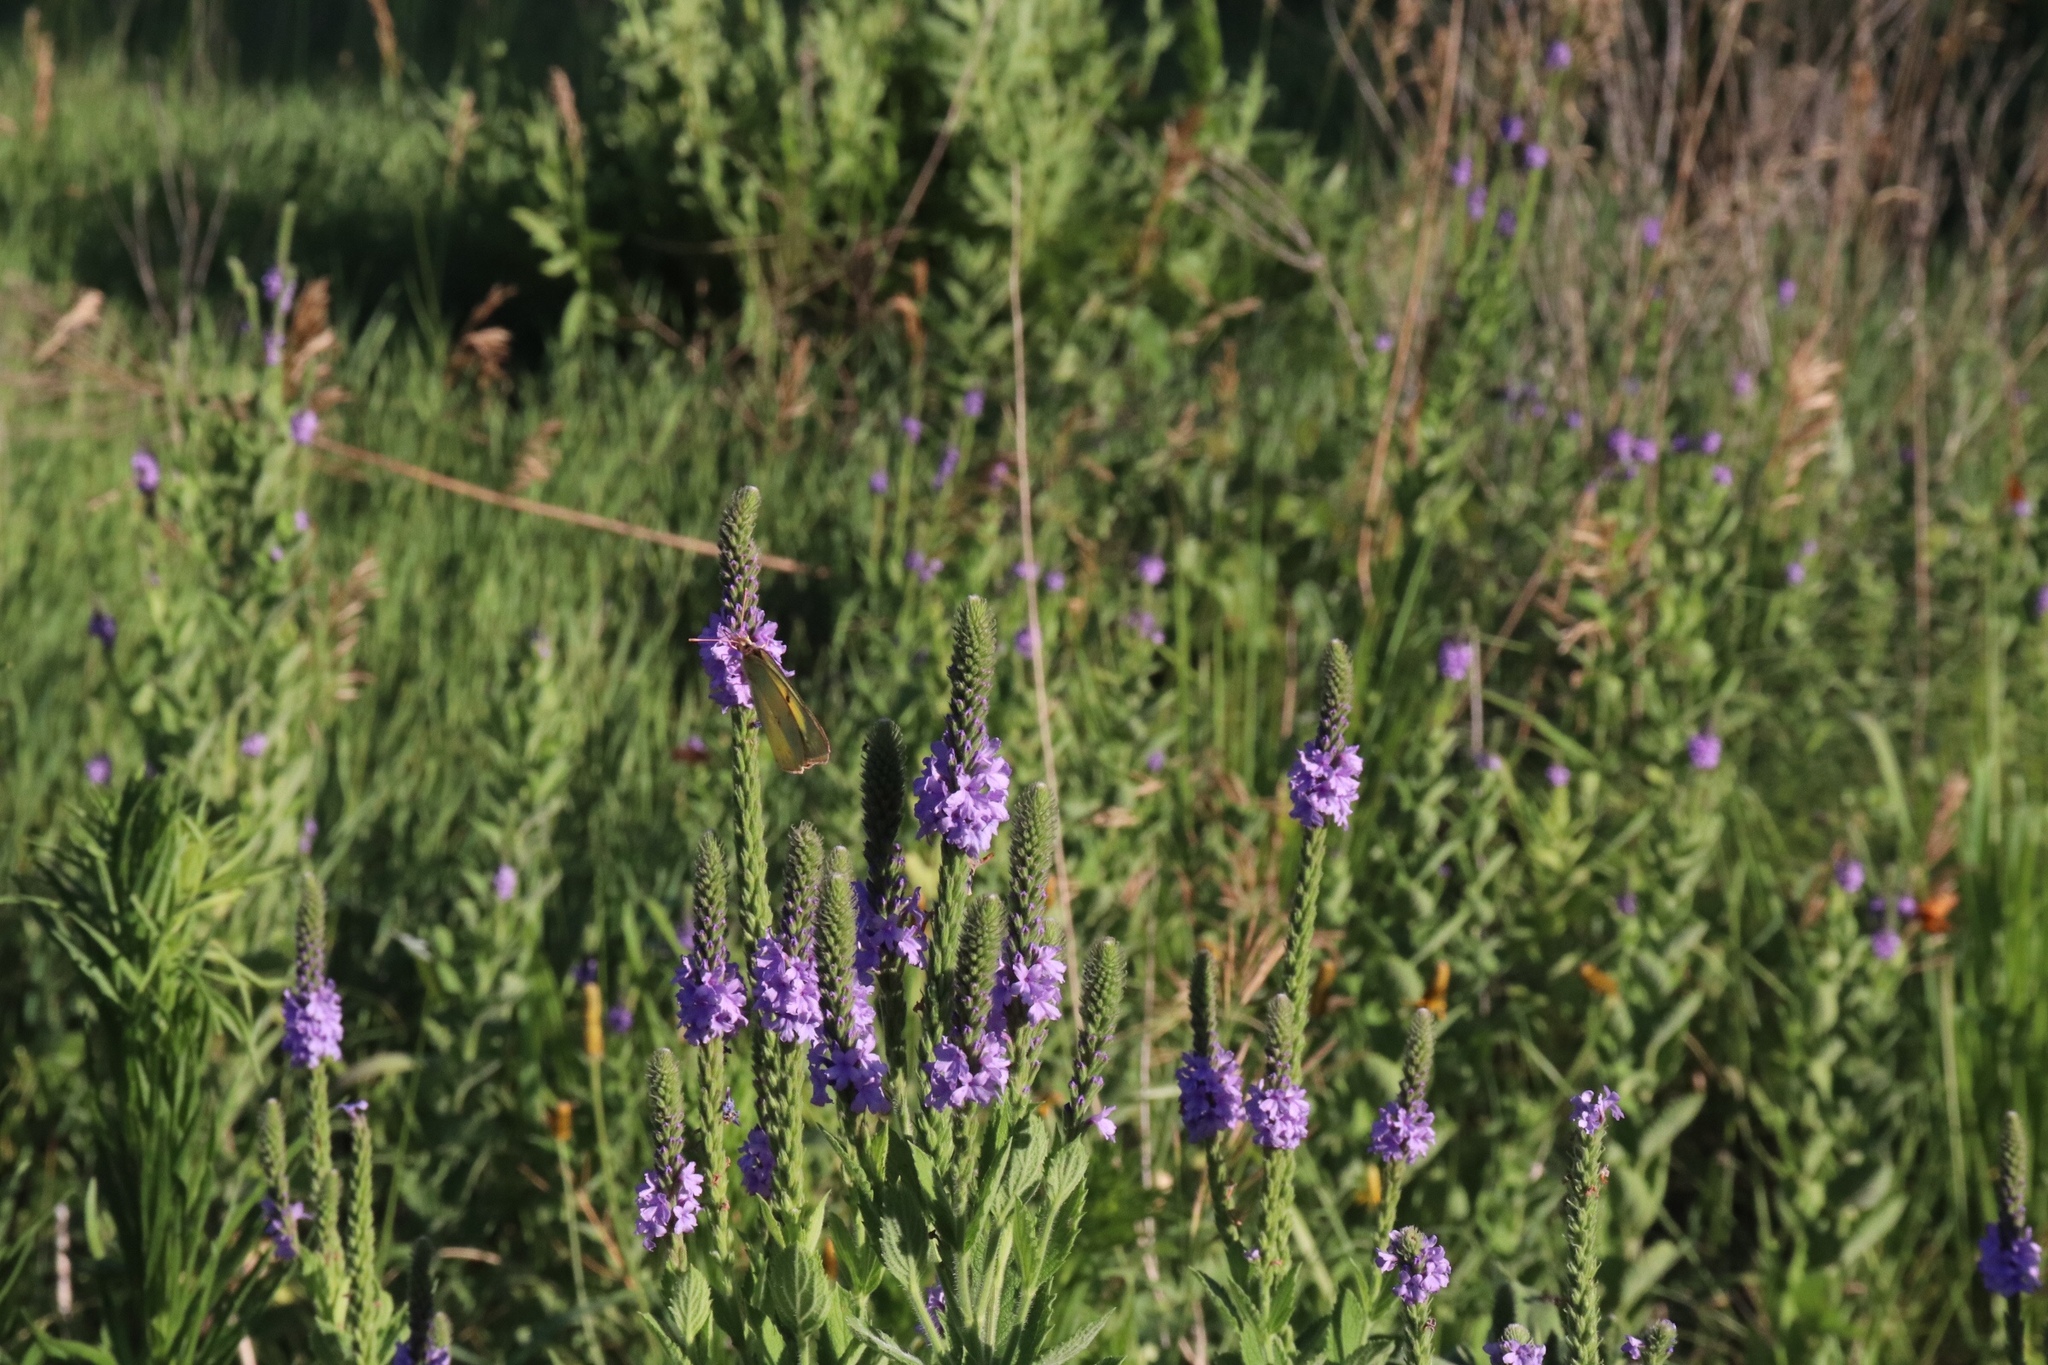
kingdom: Plantae
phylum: Tracheophyta
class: Magnoliopsida
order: Lamiales
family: Verbenaceae
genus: Verbena
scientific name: Verbena stricta
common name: Hoary vervain
